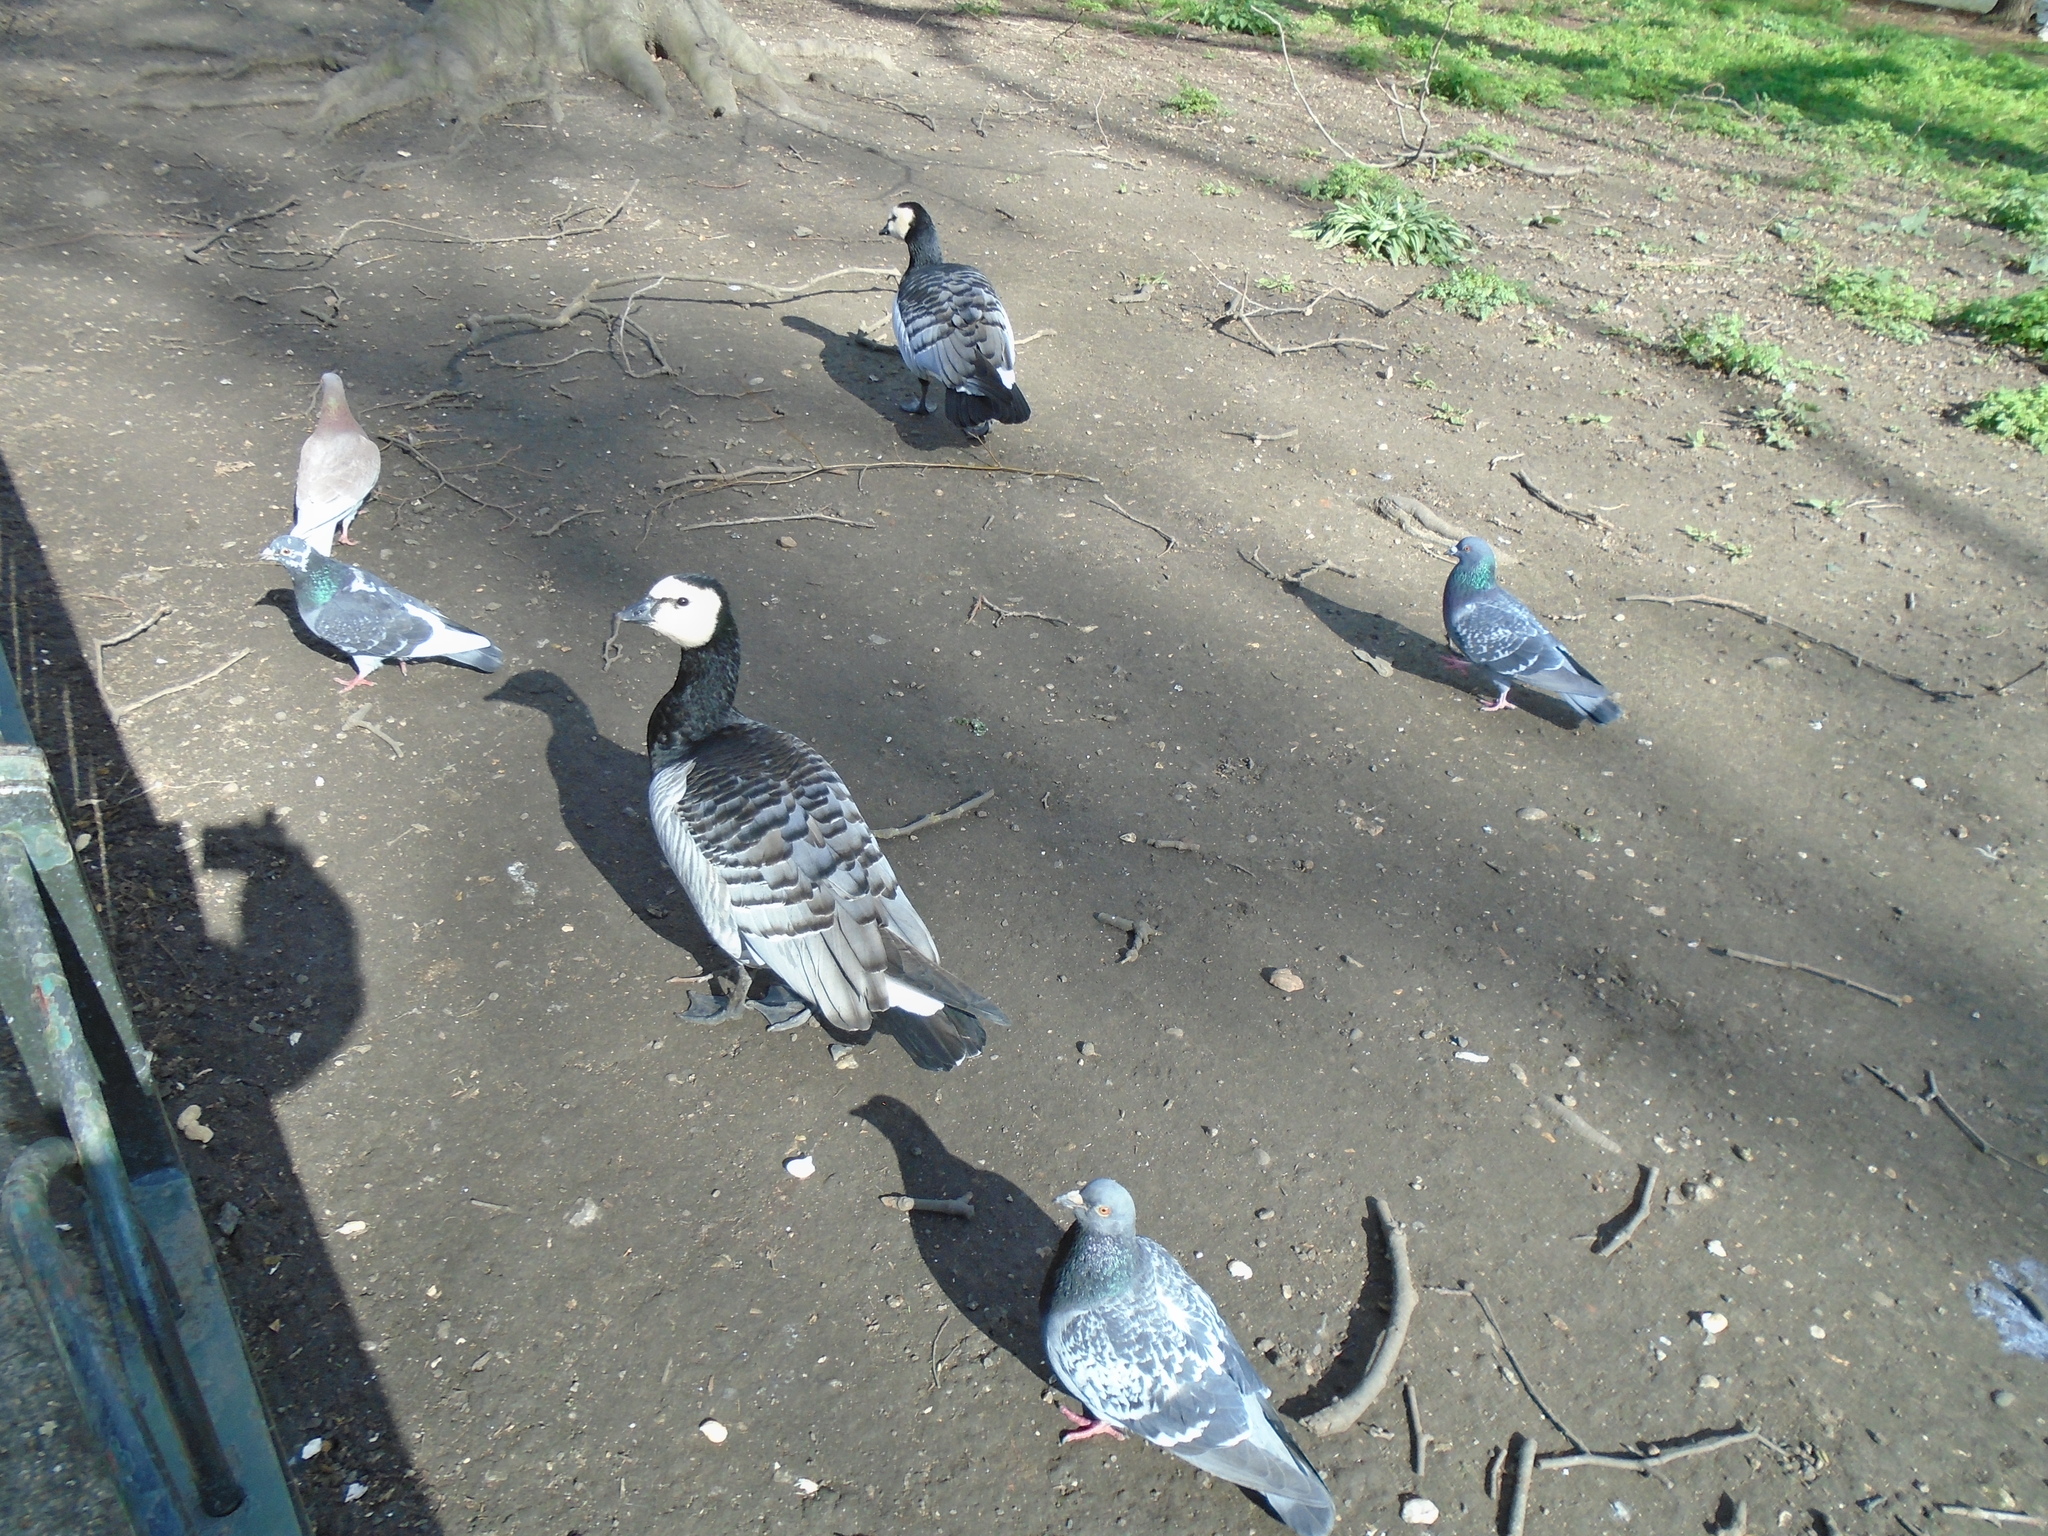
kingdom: Animalia
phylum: Chordata
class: Aves
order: Anseriformes
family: Anatidae
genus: Branta
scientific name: Branta leucopsis
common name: Barnacle goose
